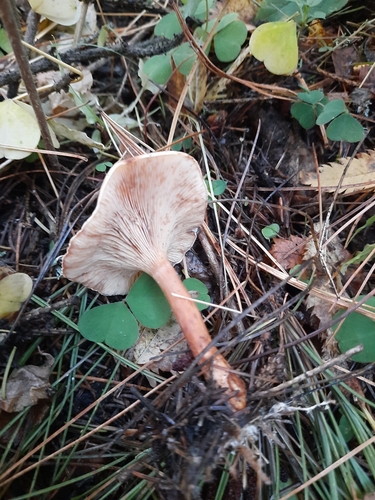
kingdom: Fungi
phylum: Basidiomycota
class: Agaricomycetes
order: Agaricales
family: Tricholomataceae
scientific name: Tricholomataceae
